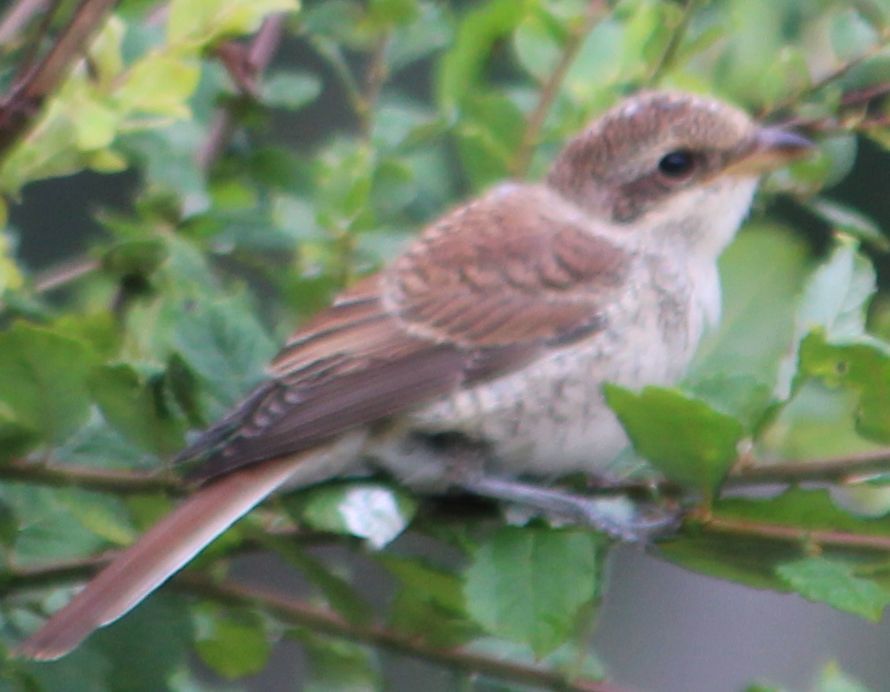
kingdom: Animalia
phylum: Chordata
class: Aves
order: Passeriformes
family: Laniidae
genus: Lanius
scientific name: Lanius collurio
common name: Red-backed shrike
